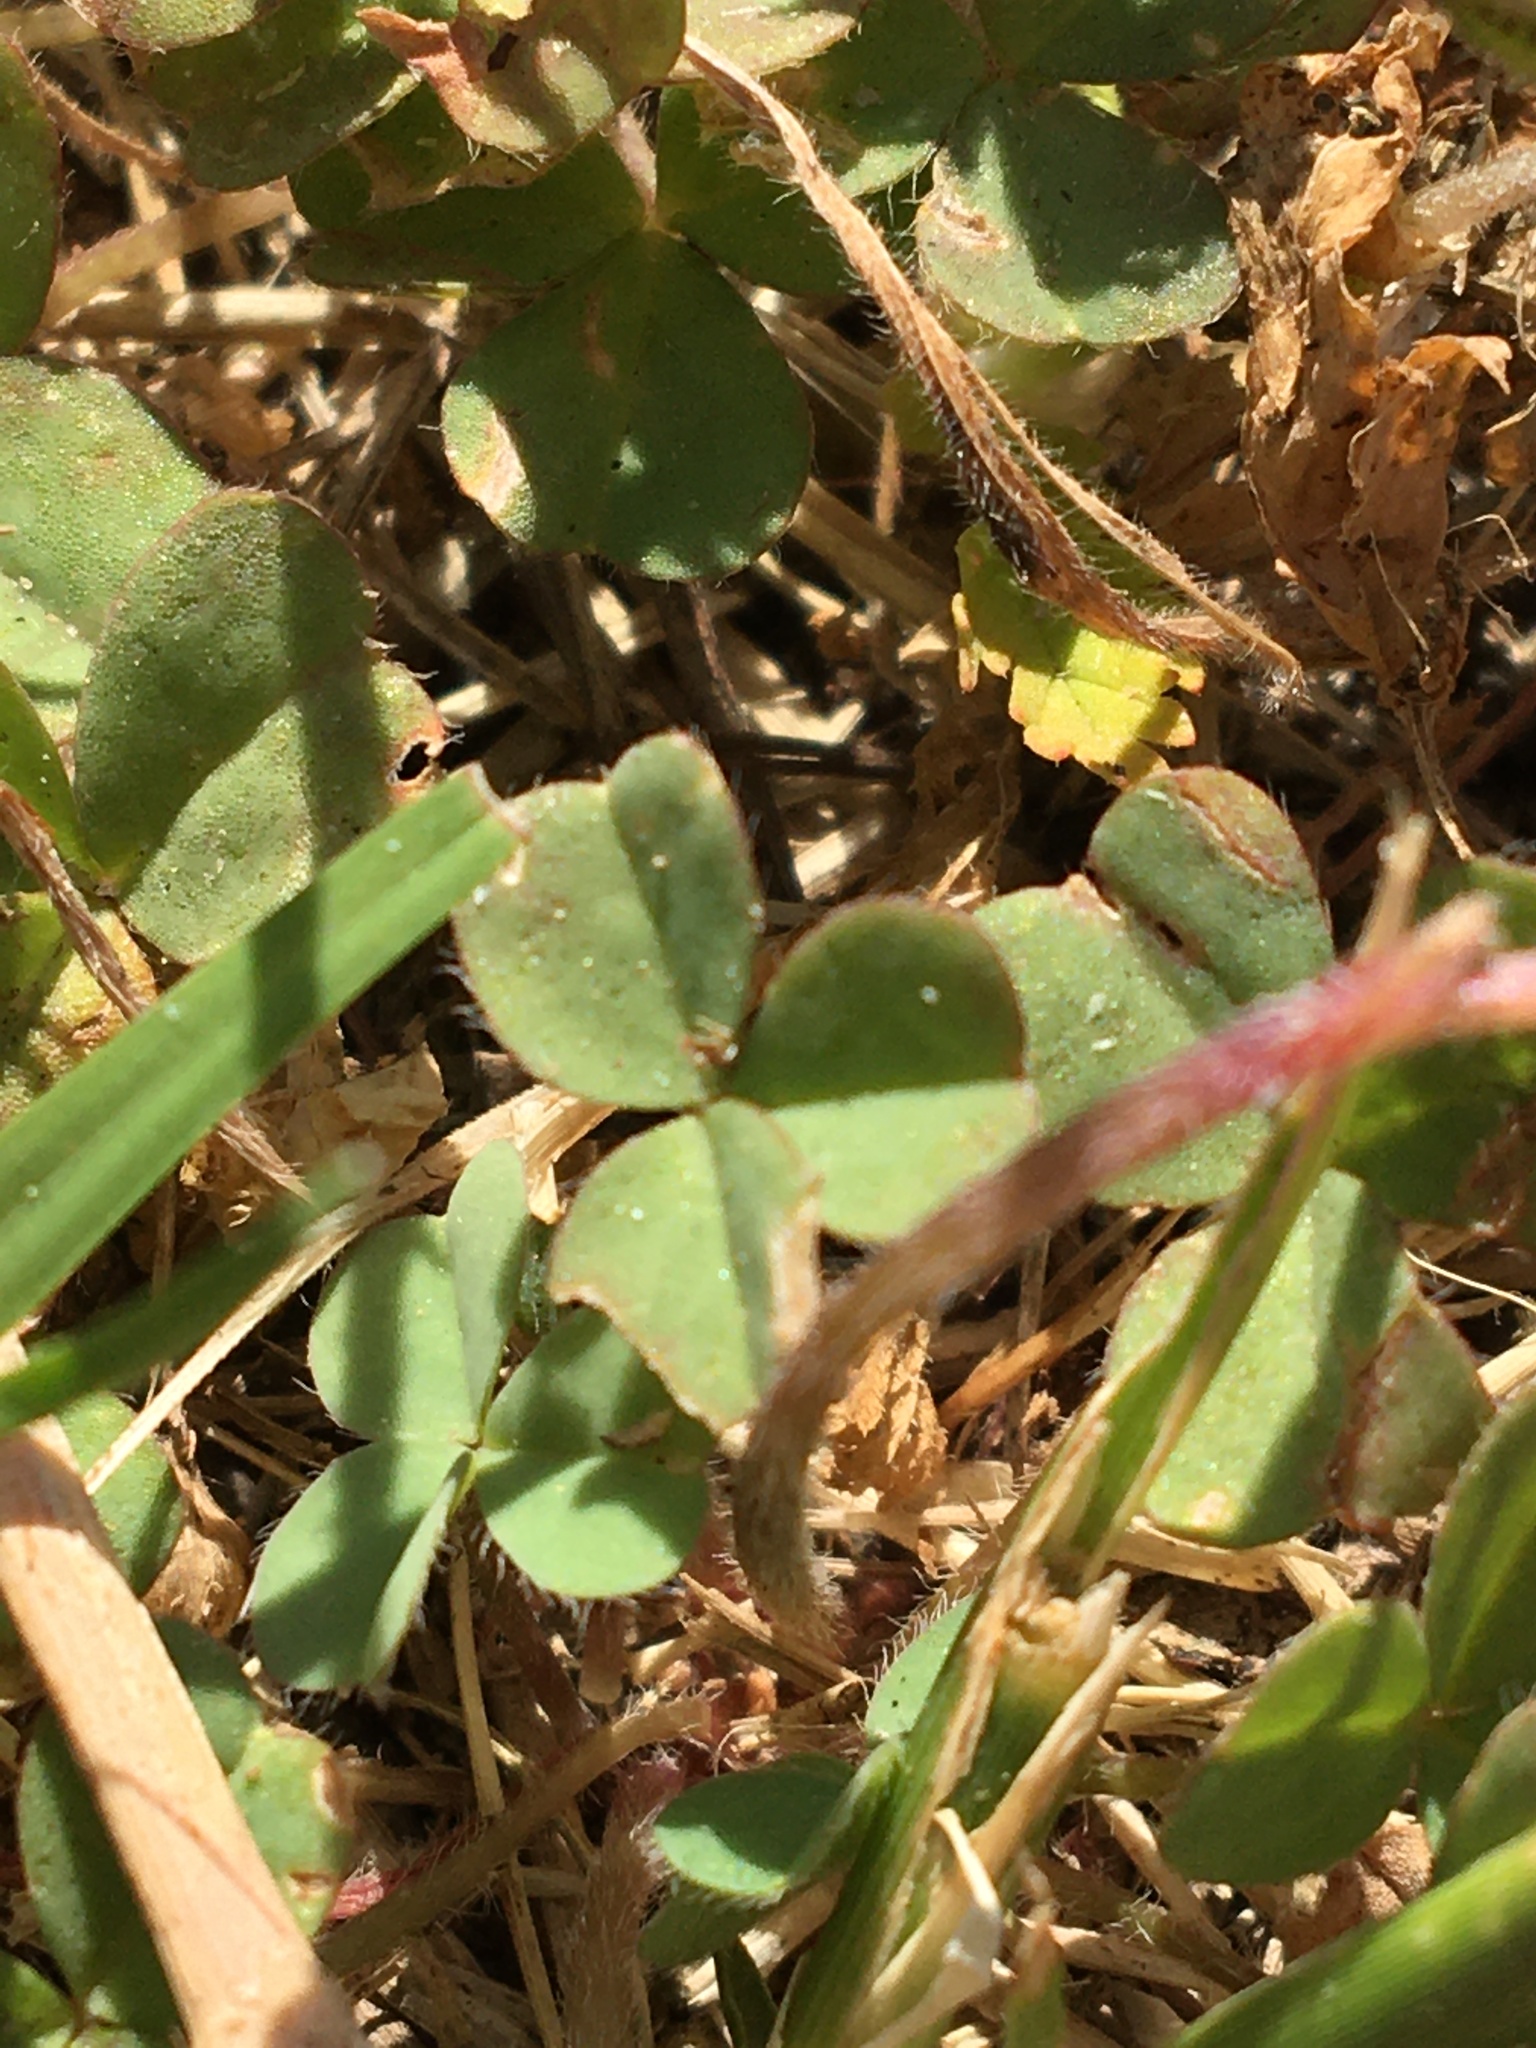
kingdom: Plantae
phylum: Tracheophyta
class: Magnoliopsida
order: Oxalidales
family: Oxalidaceae
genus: Oxalis
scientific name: Oxalis obtusa
